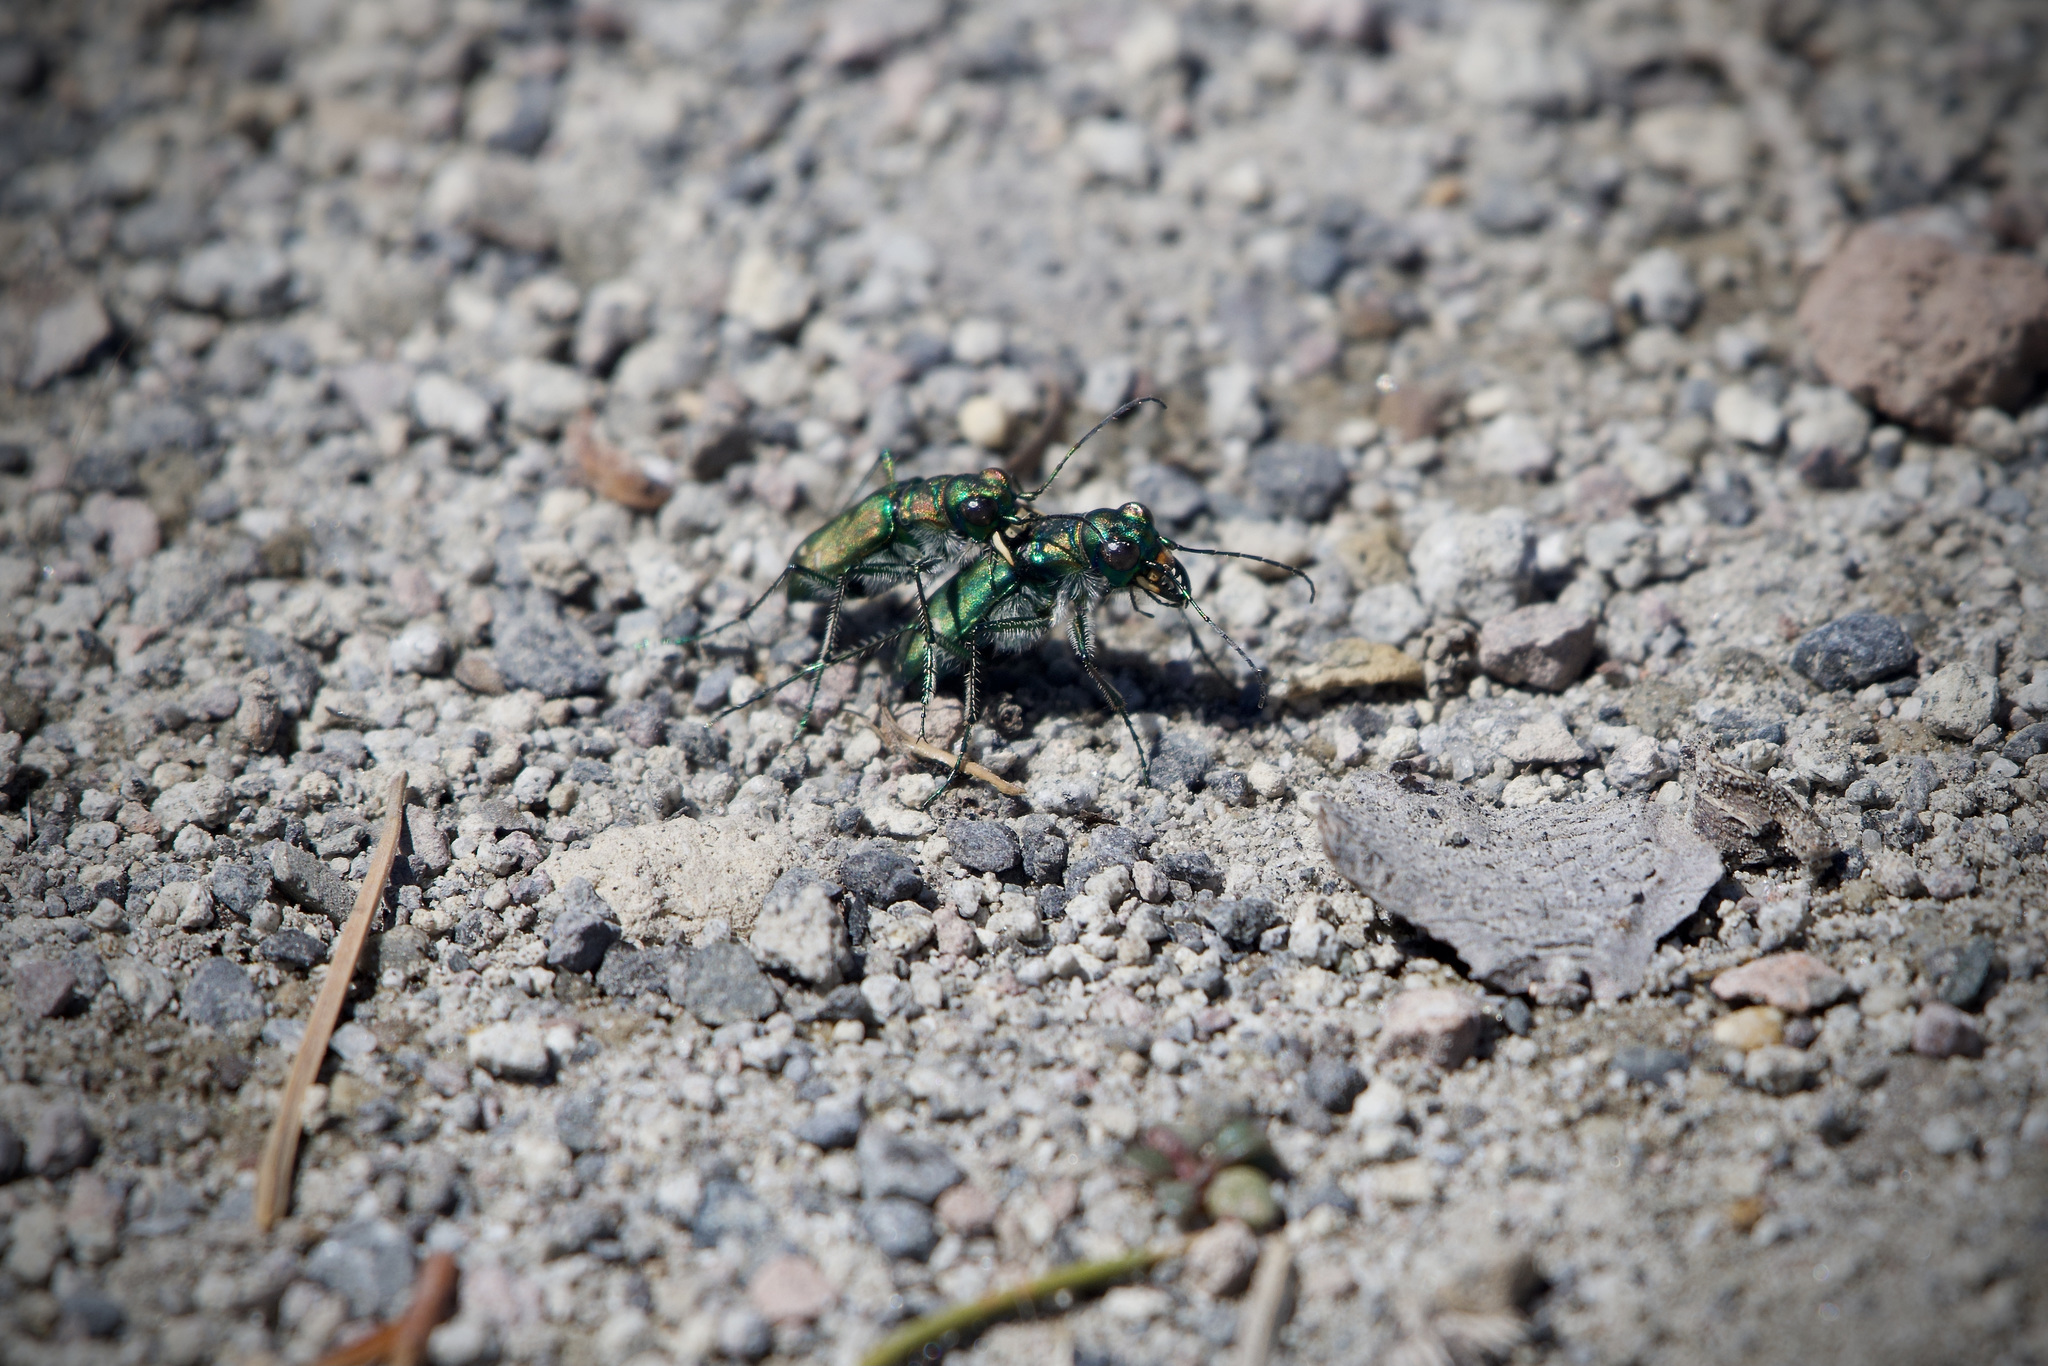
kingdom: Animalia
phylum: Arthropoda
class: Insecta
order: Coleoptera
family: Carabidae
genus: Cicindela
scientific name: Cicindela depressula
